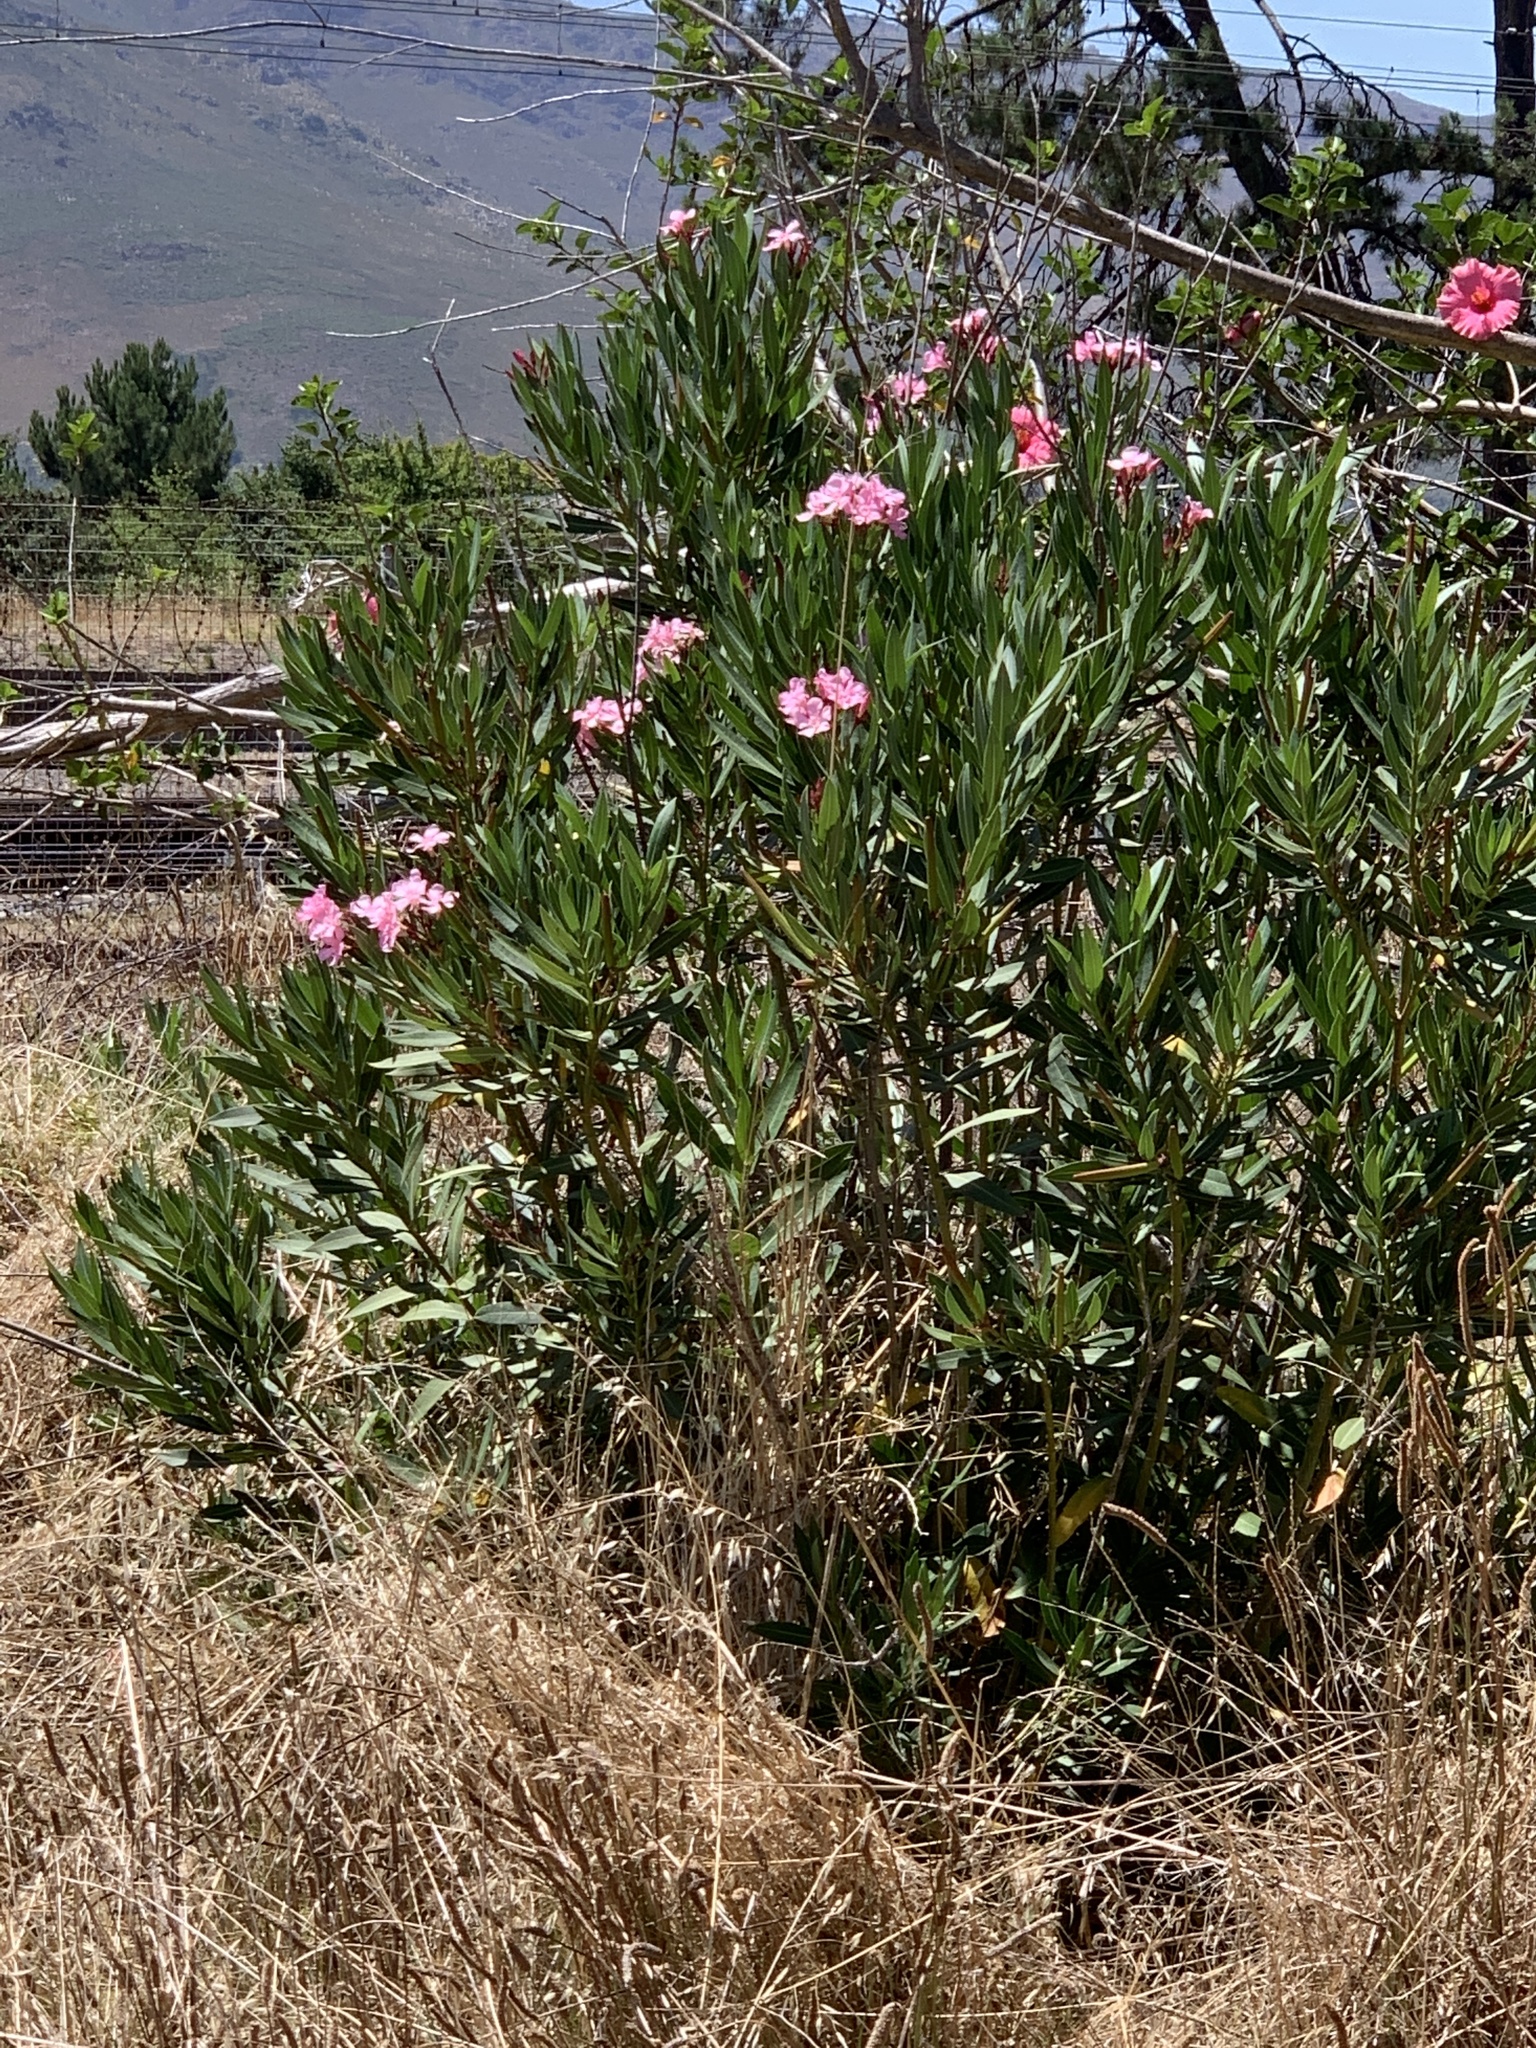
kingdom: Plantae
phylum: Tracheophyta
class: Magnoliopsida
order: Gentianales
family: Apocynaceae
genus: Nerium
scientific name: Nerium oleander
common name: Oleander
